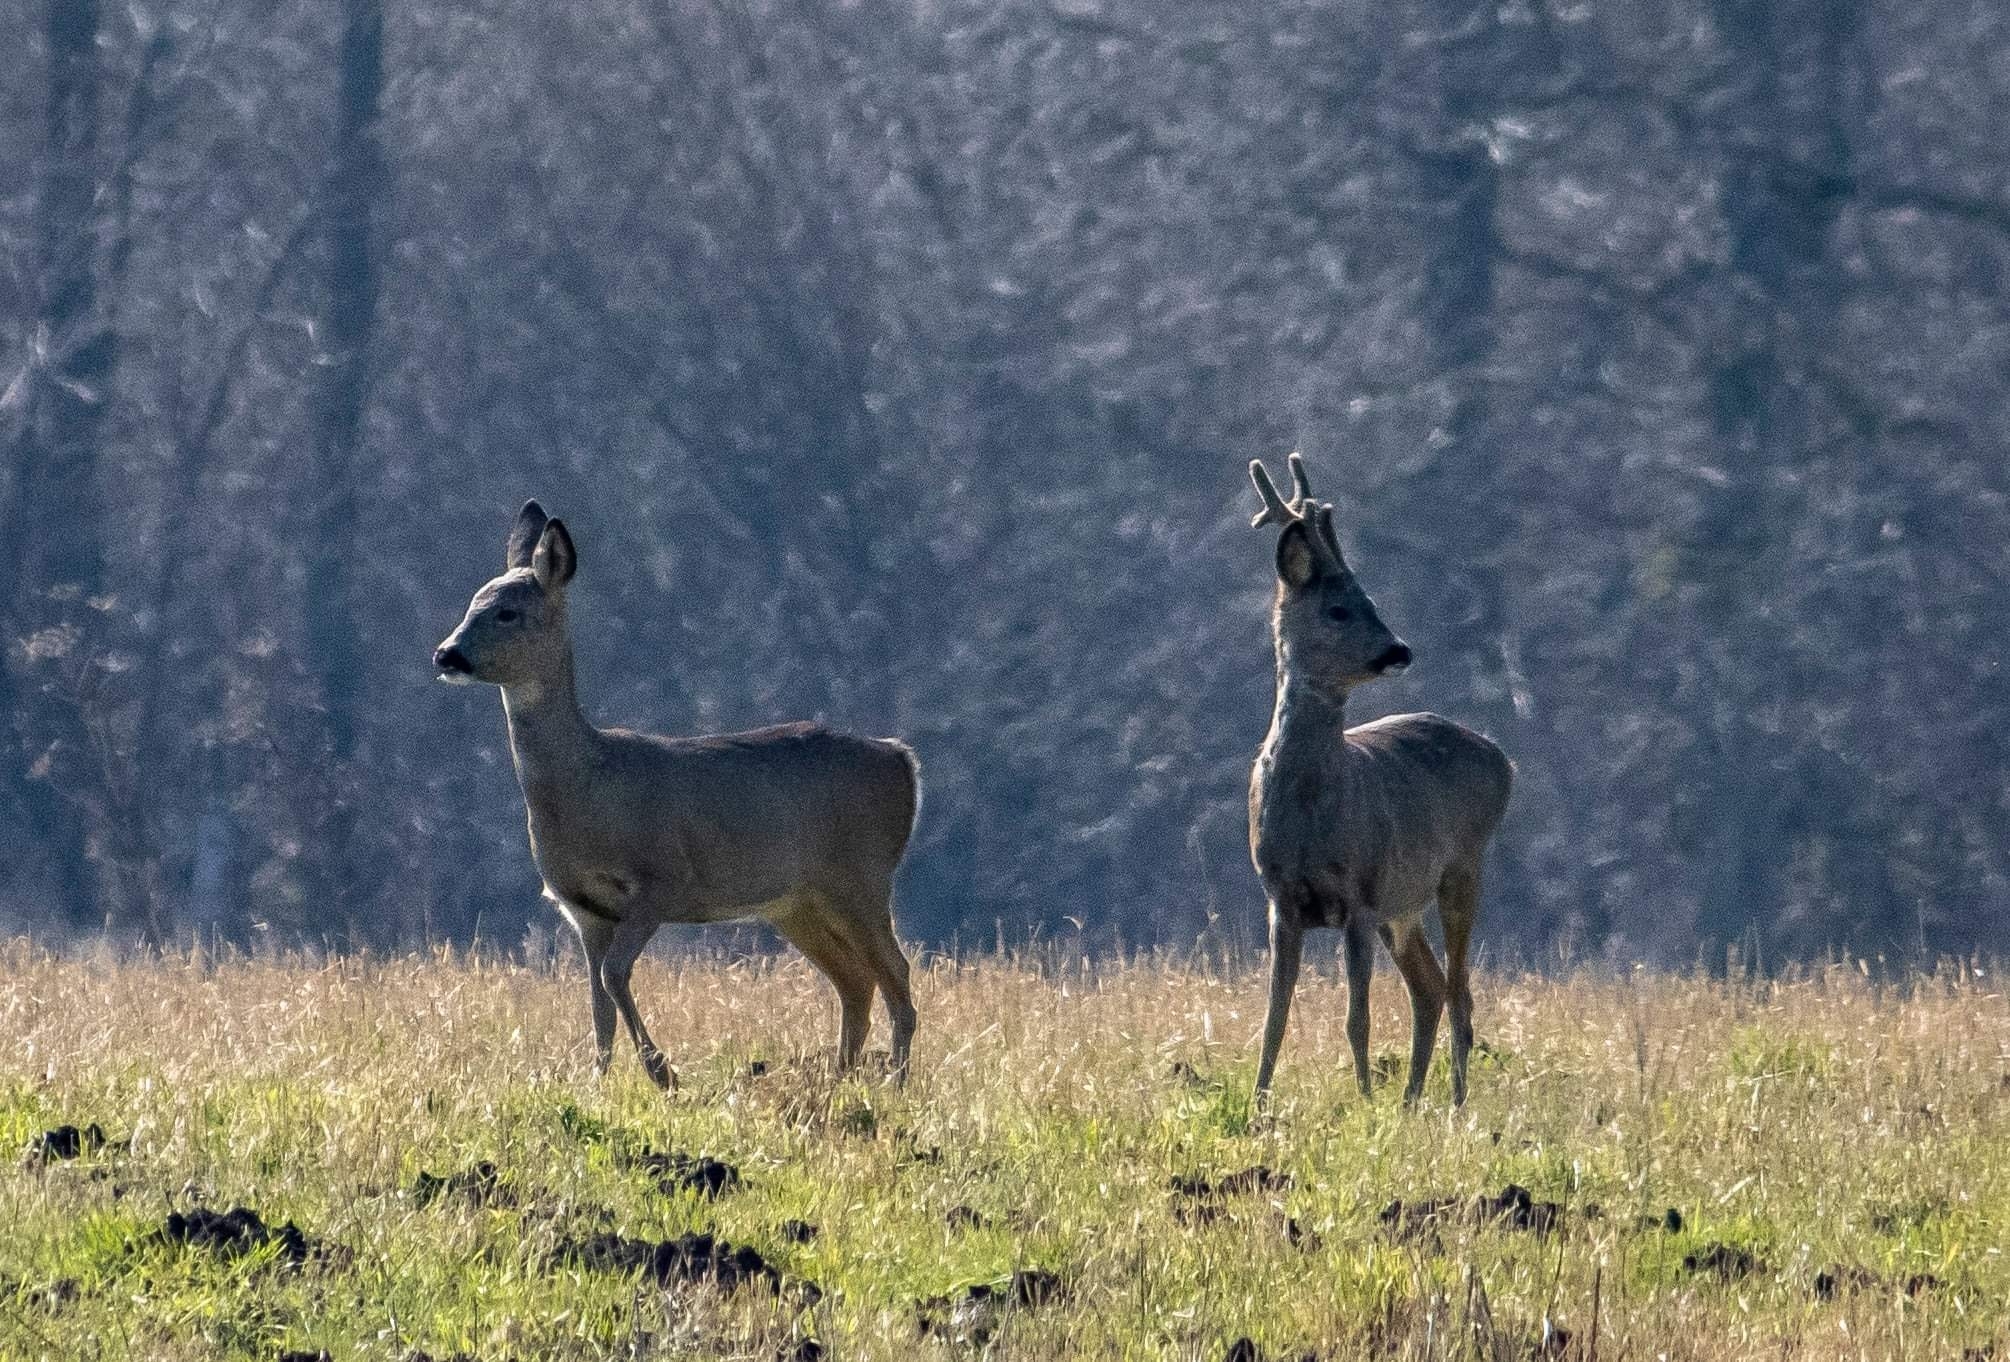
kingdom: Animalia
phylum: Chordata
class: Mammalia
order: Artiodactyla
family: Cervidae
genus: Capreolus
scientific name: Capreolus capreolus
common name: Western roe deer
